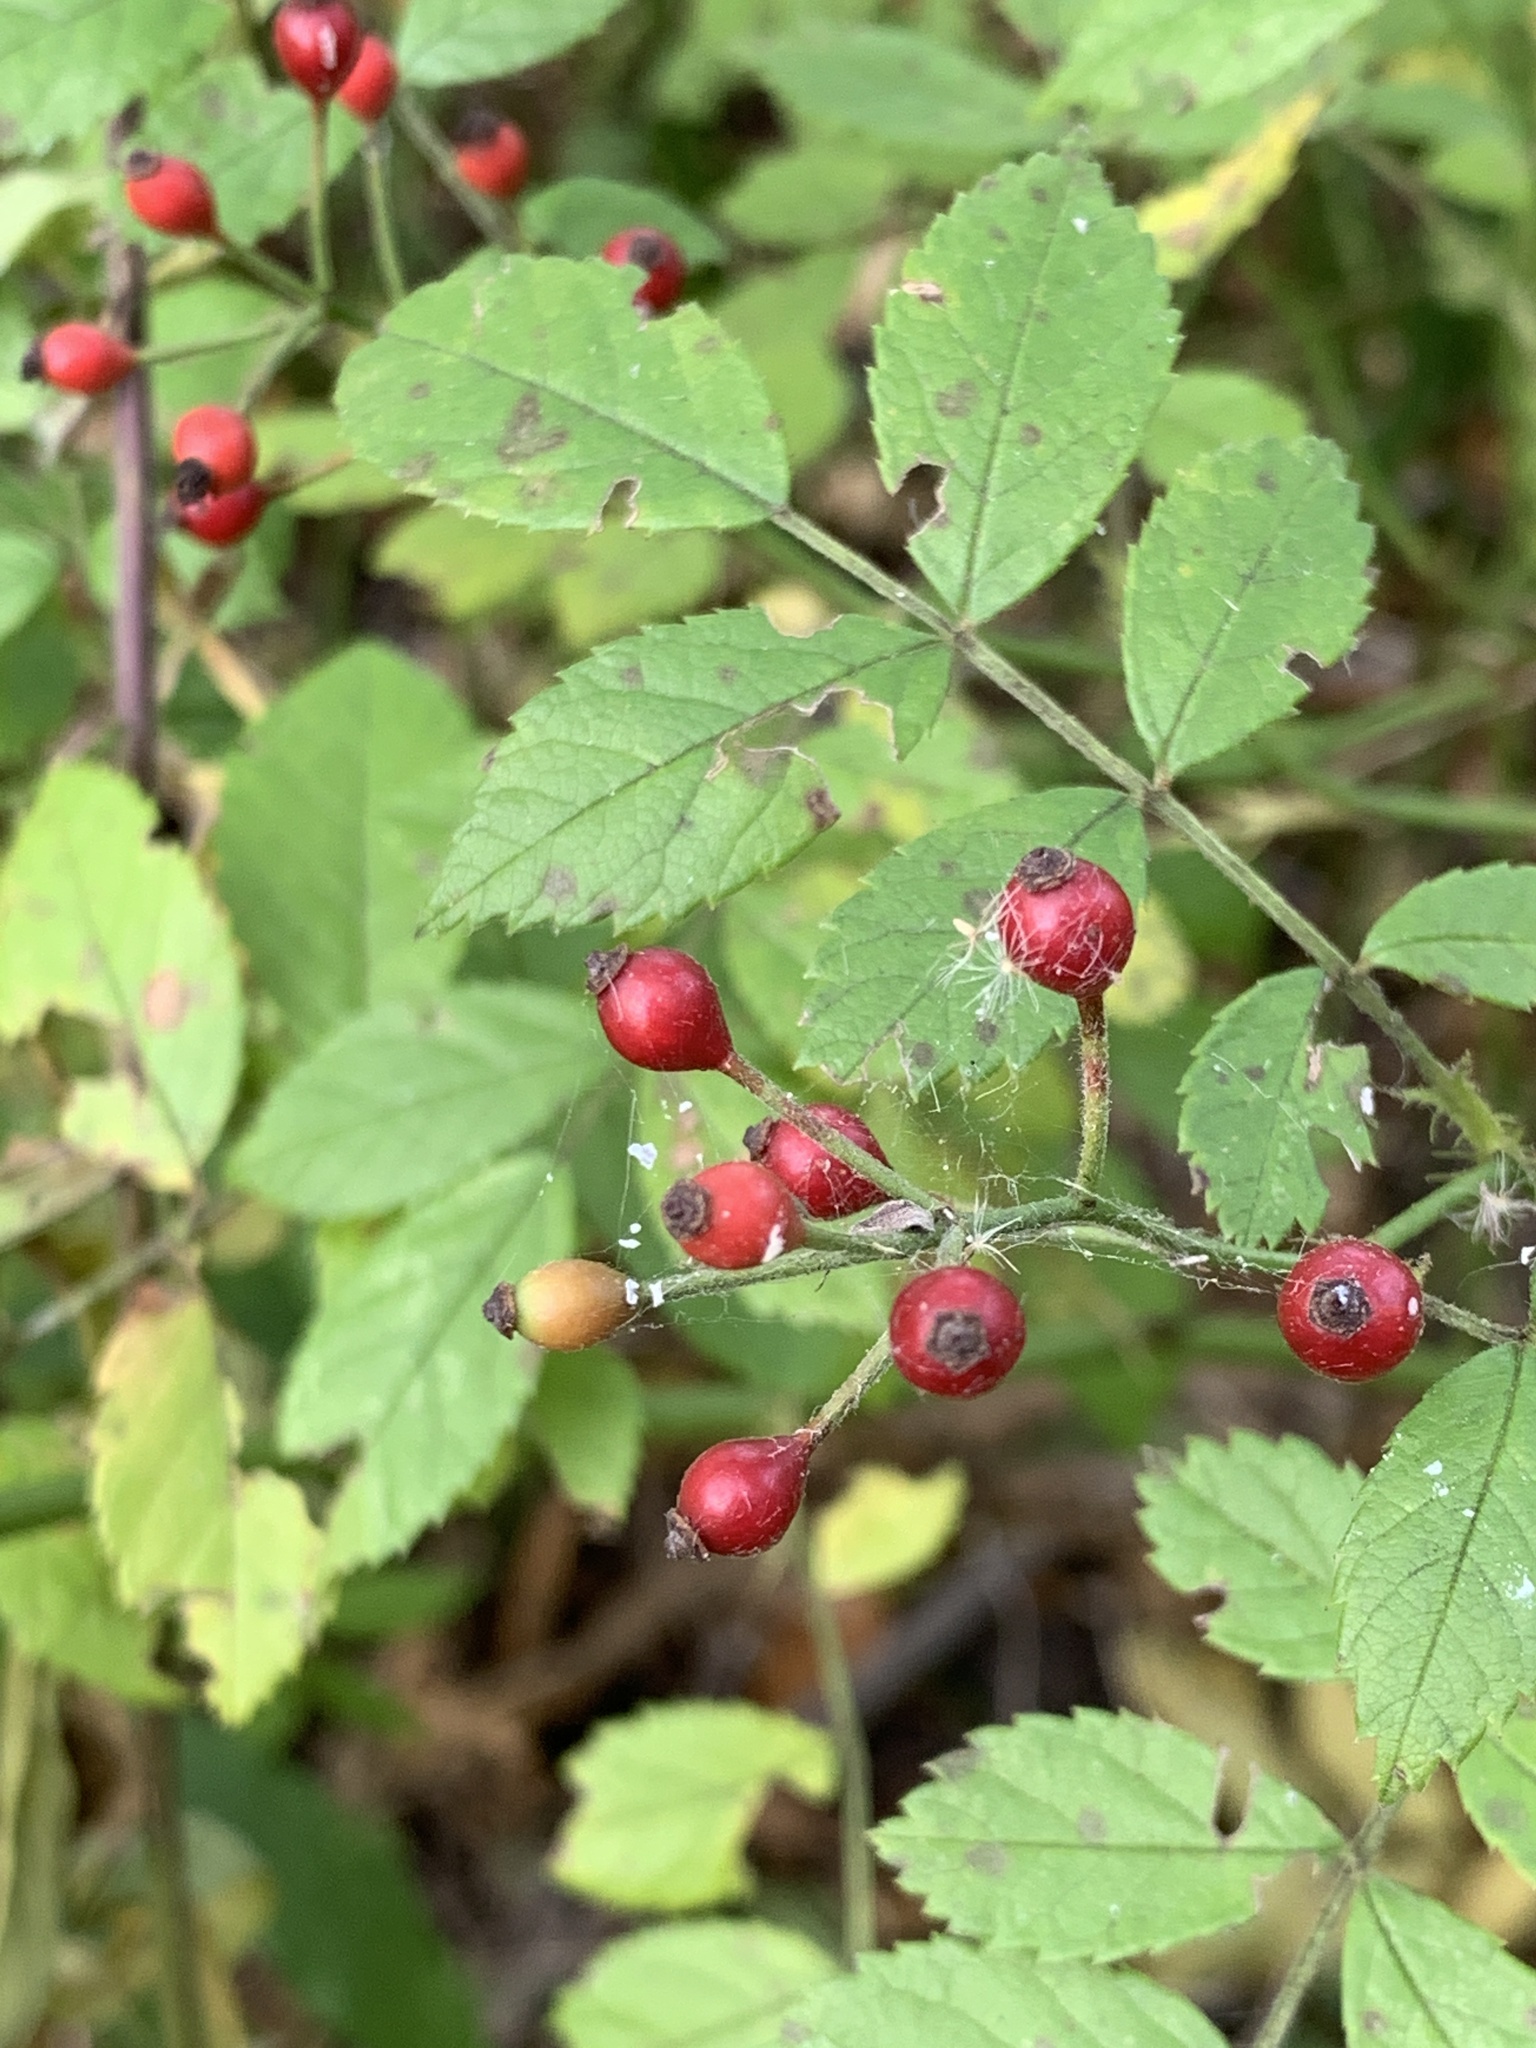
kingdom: Plantae
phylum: Tracheophyta
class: Magnoliopsida
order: Rosales
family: Rosaceae
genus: Rosa
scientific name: Rosa multiflora
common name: Multiflora rose
